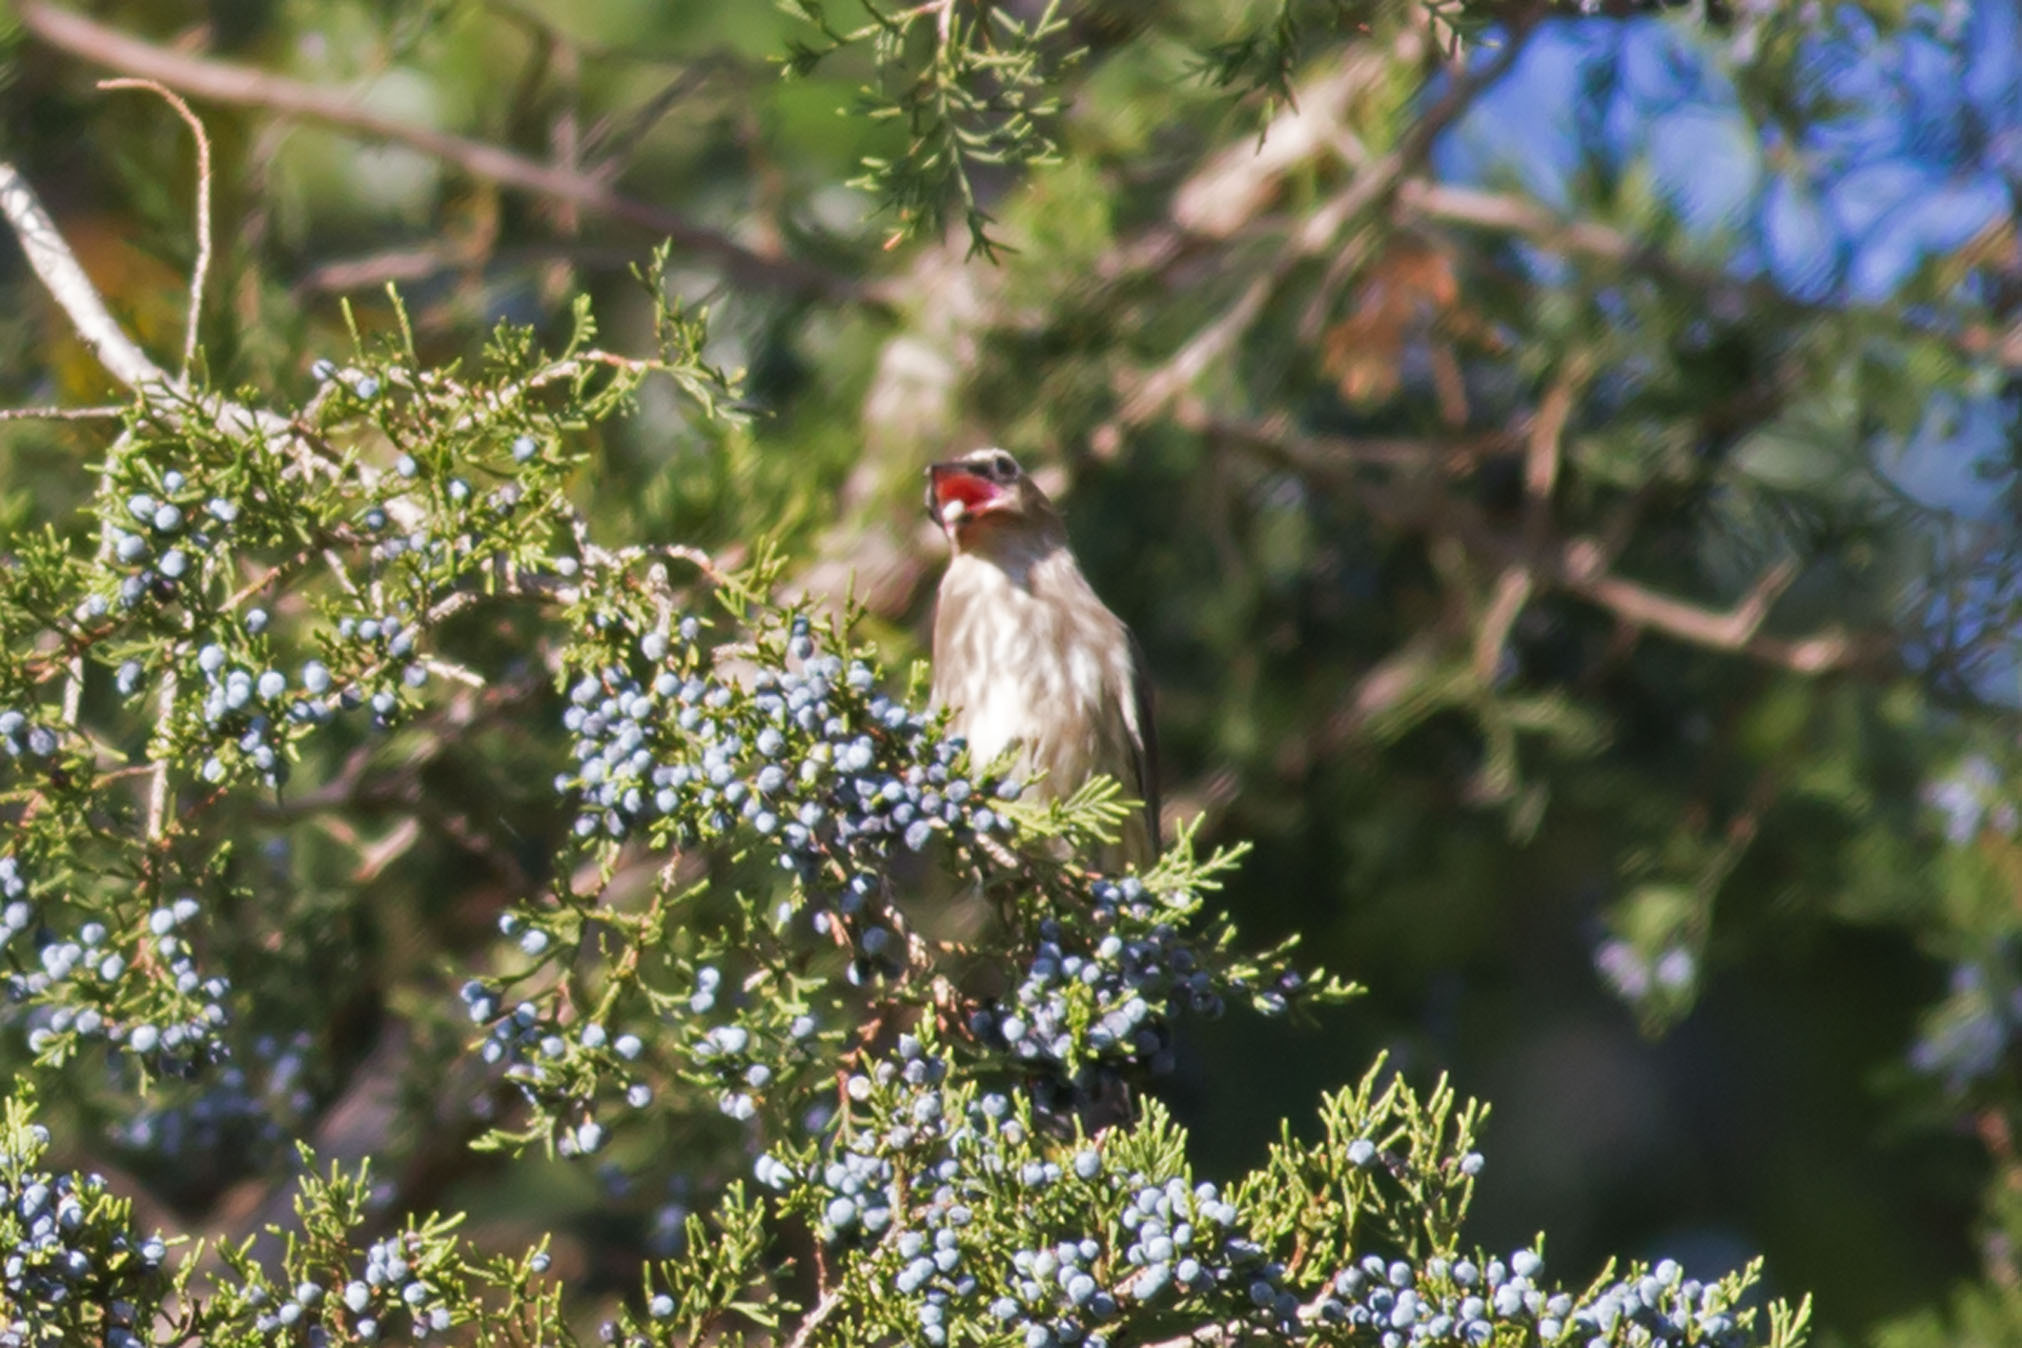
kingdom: Animalia
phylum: Chordata
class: Aves
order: Passeriformes
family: Bombycillidae
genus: Bombycilla
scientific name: Bombycilla cedrorum
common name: Cedar waxwing
